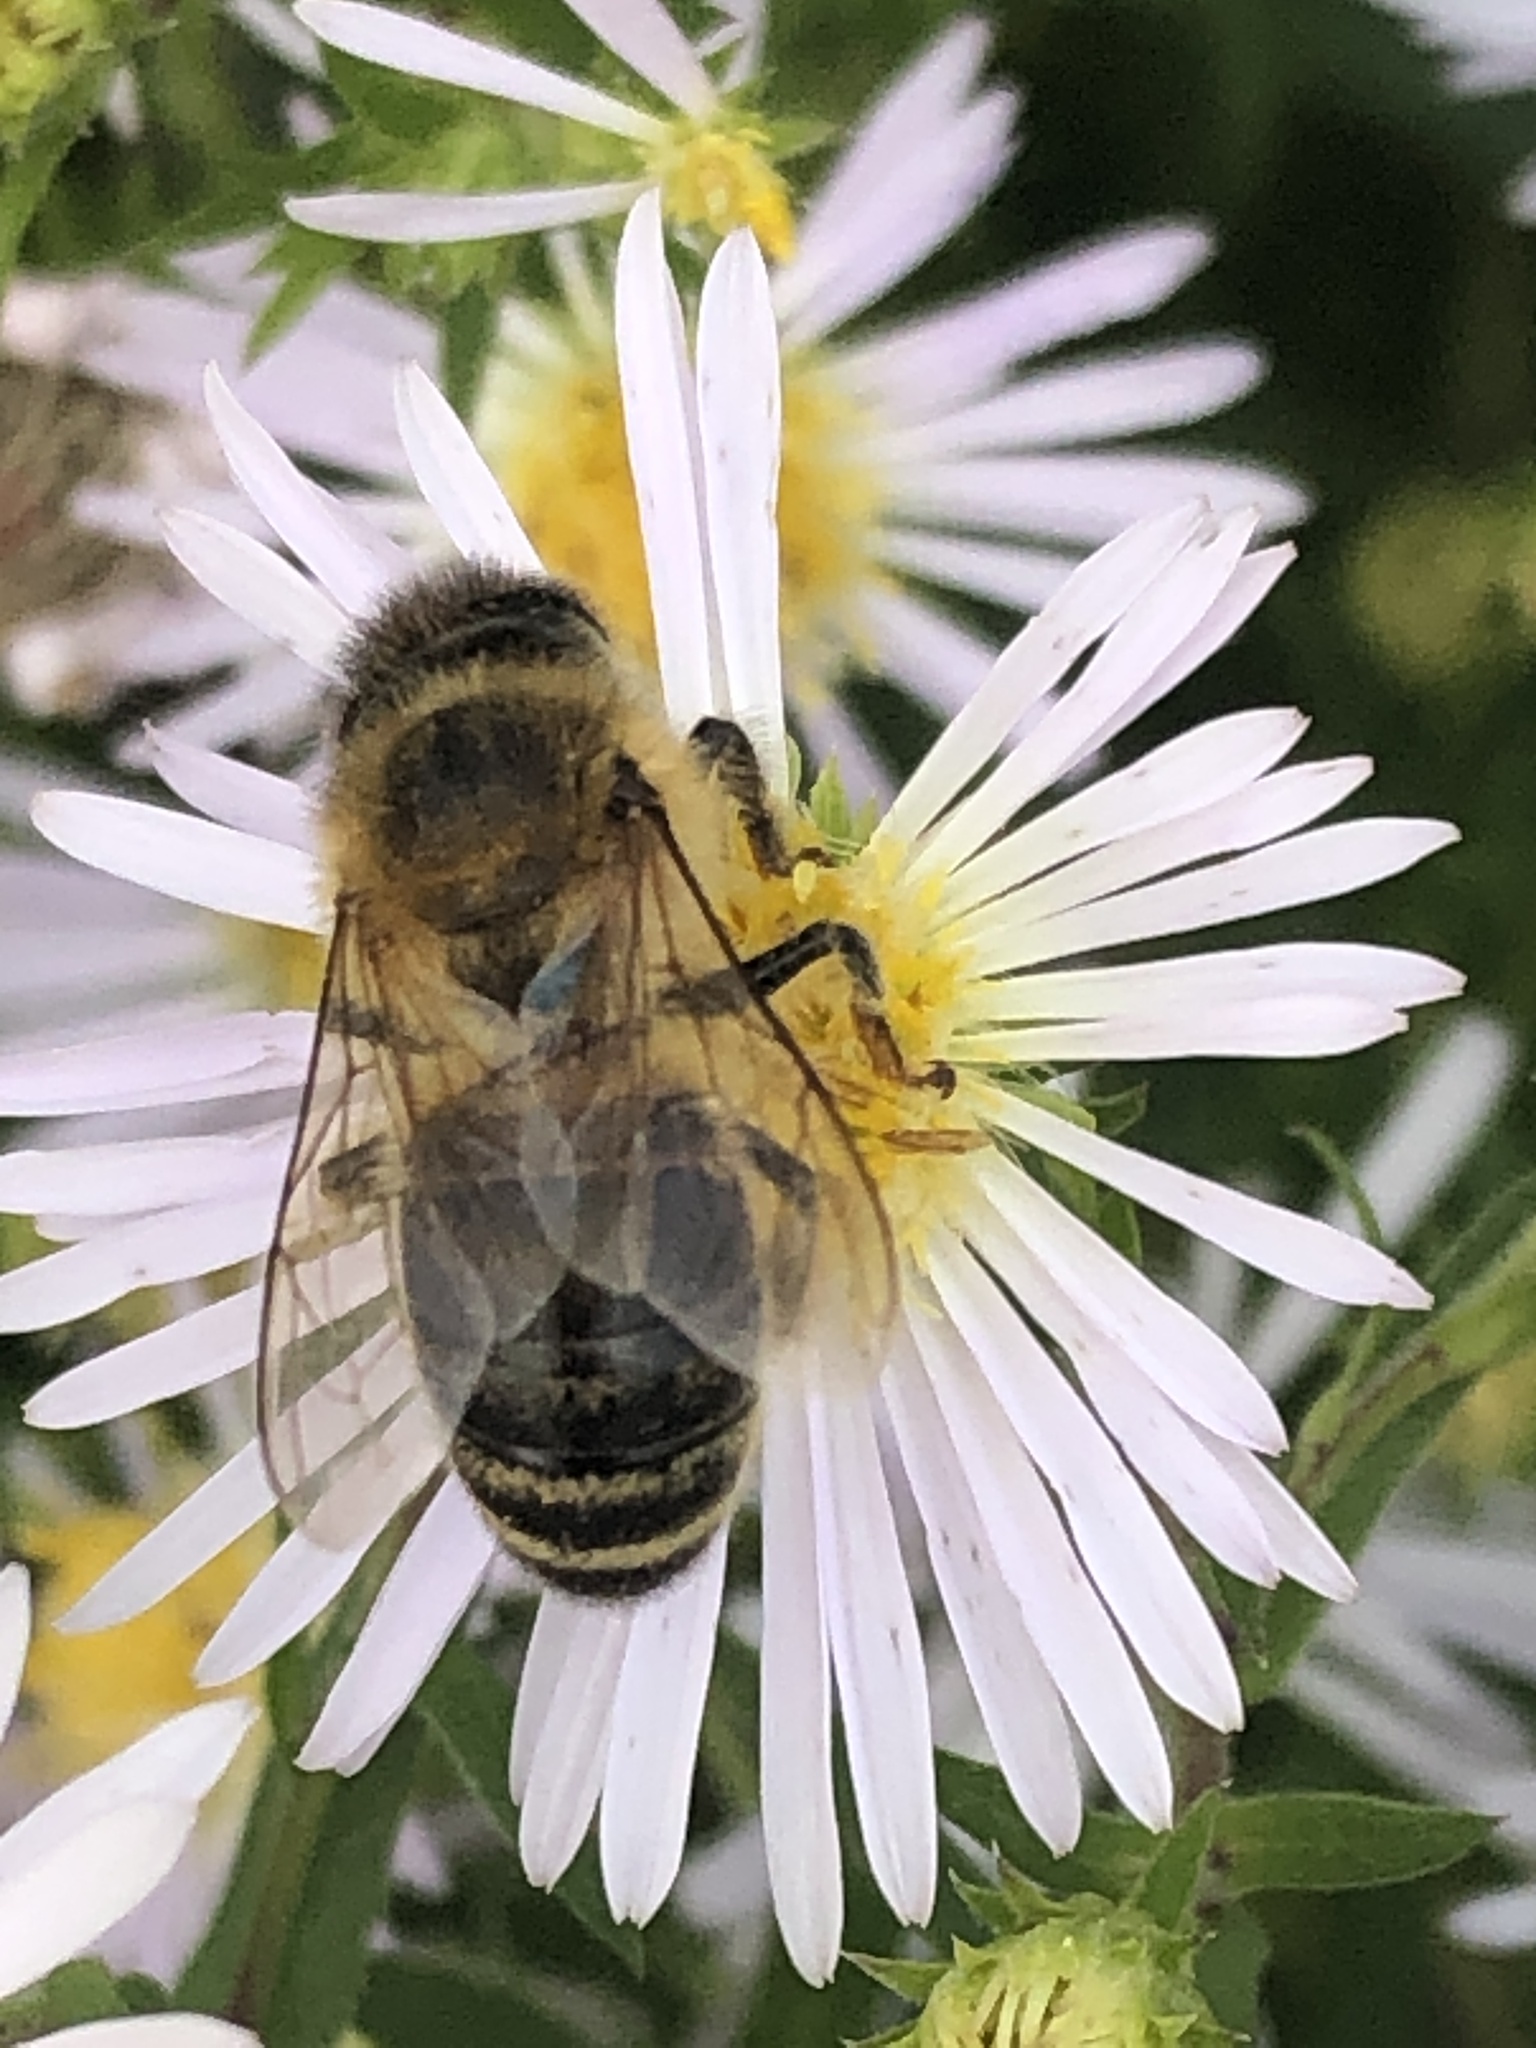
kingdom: Animalia
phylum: Arthropoda
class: Insecta
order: Hymenoptera
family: Apidae
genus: Apis
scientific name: Apis mellifera
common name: Honey bee
